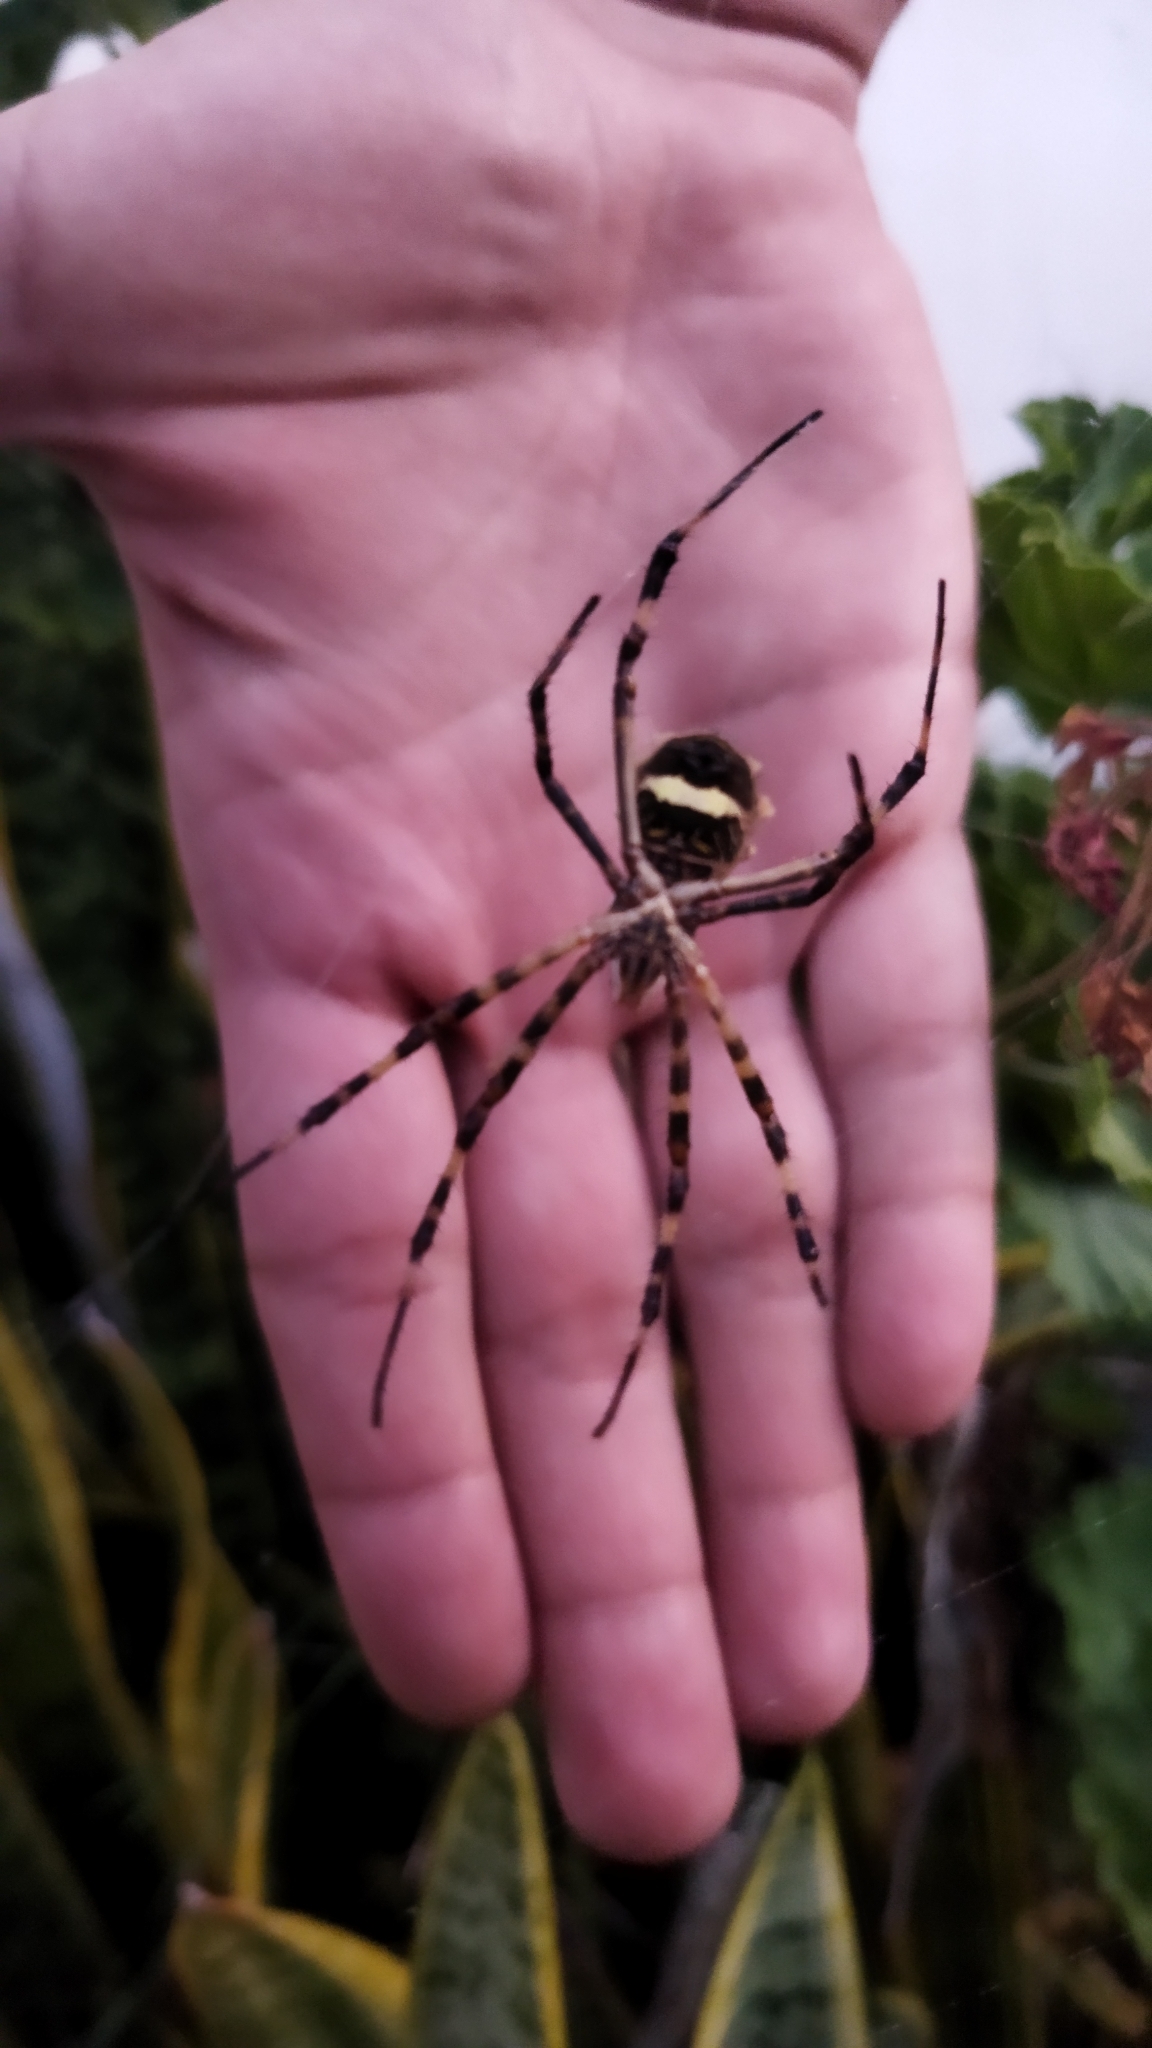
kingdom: Animalia
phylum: Arthropoda
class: Arachnida
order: Araneae
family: Araneidae
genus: Argiope
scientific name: Argiope argentata
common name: Orb weavers
